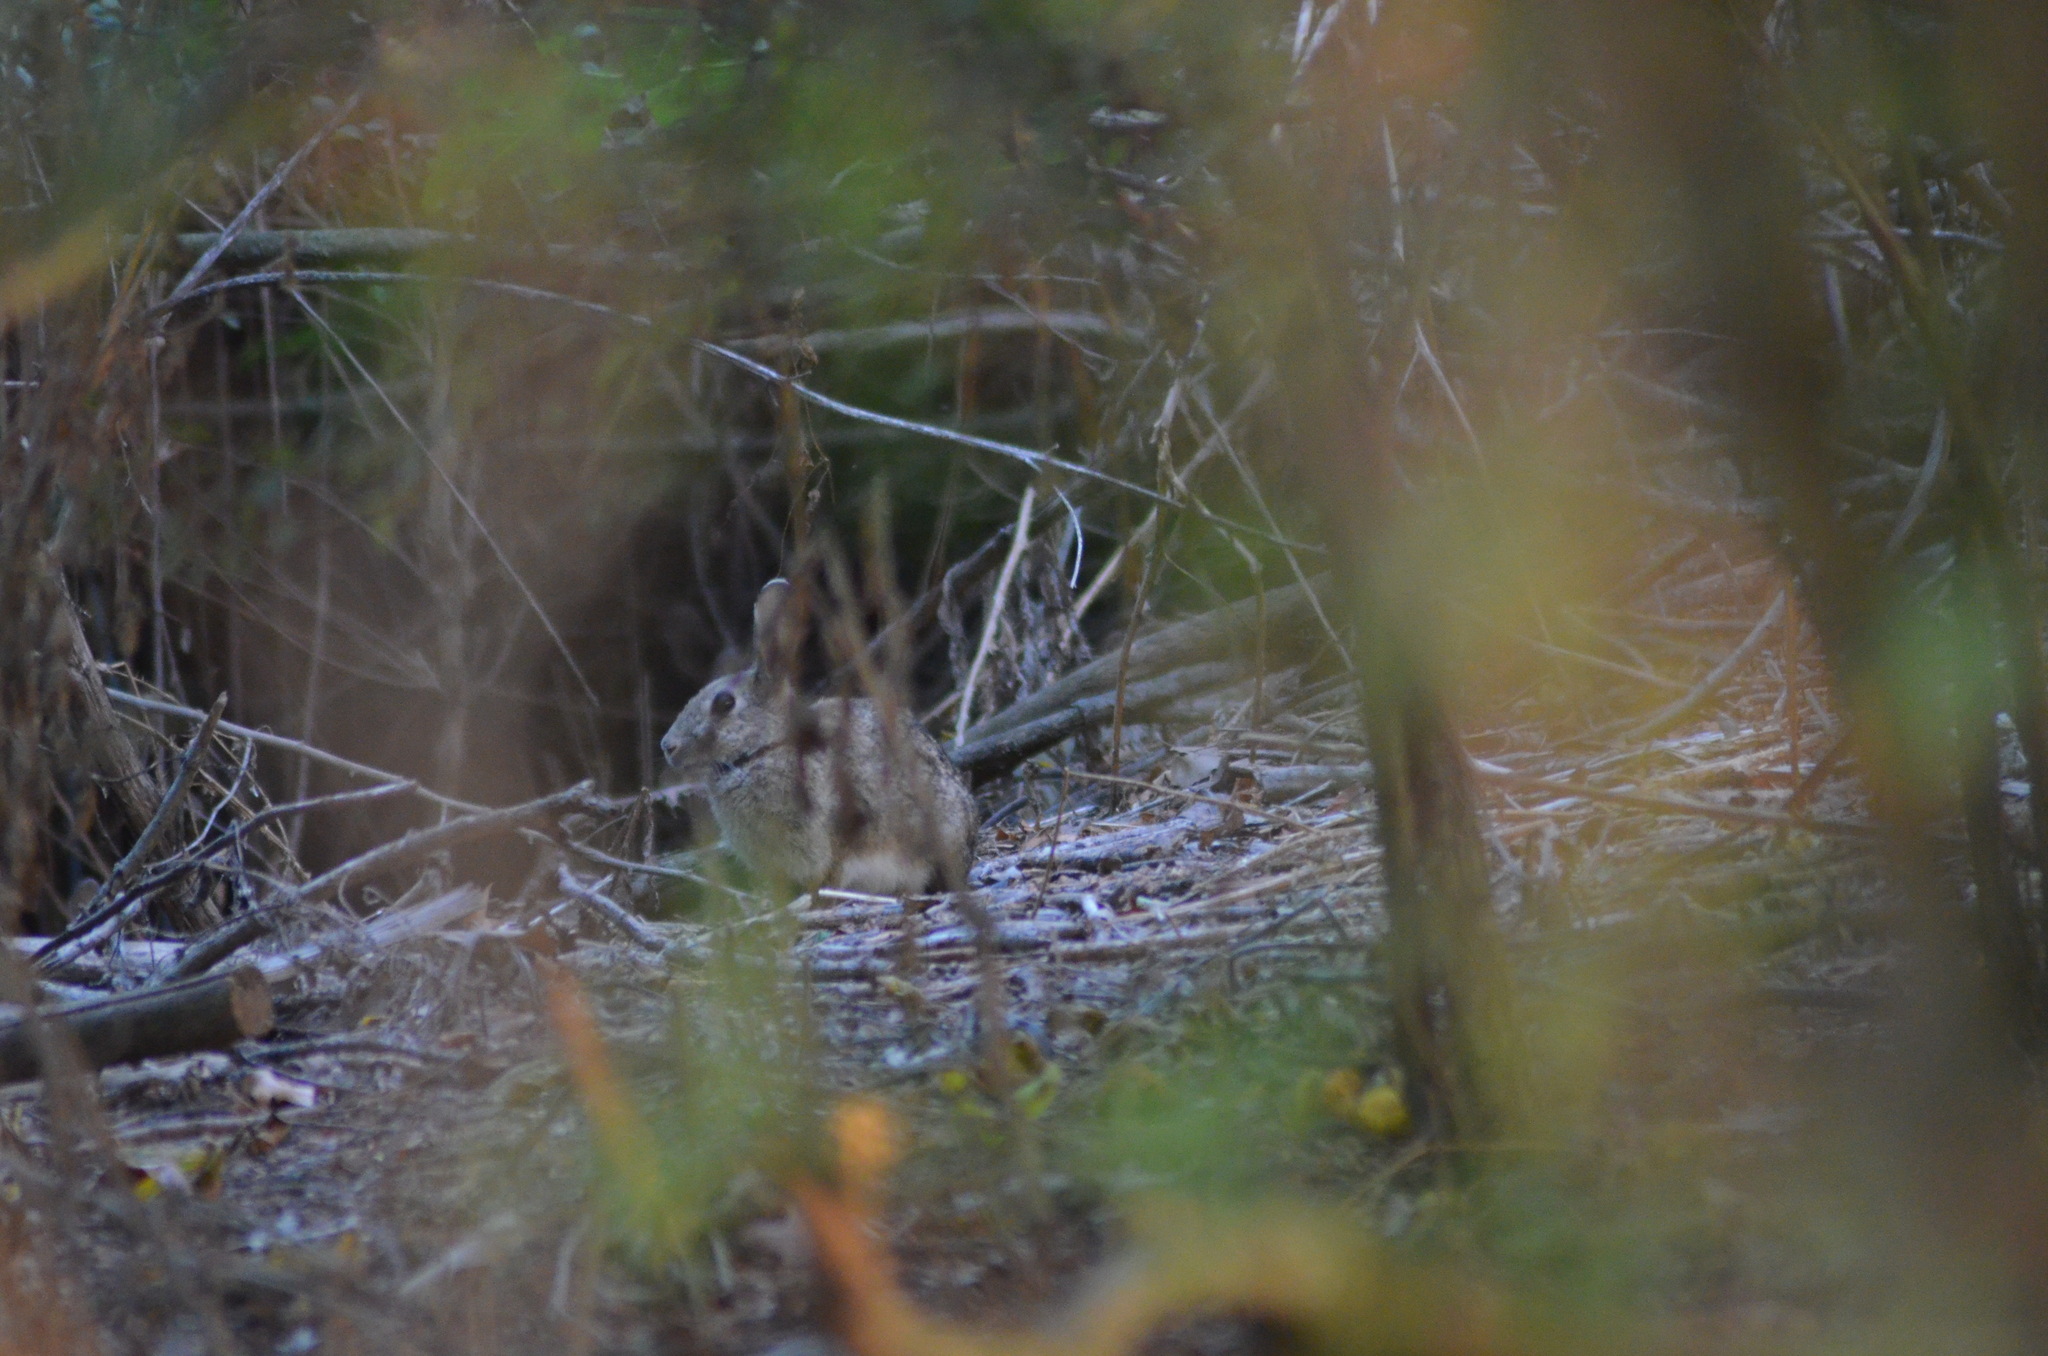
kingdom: Animalia
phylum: Chordata
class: Mammalia
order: Lagomorpha
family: Leporidae
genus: Oryctolagus
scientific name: Oryctolagus cuniculus
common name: European rabbit
